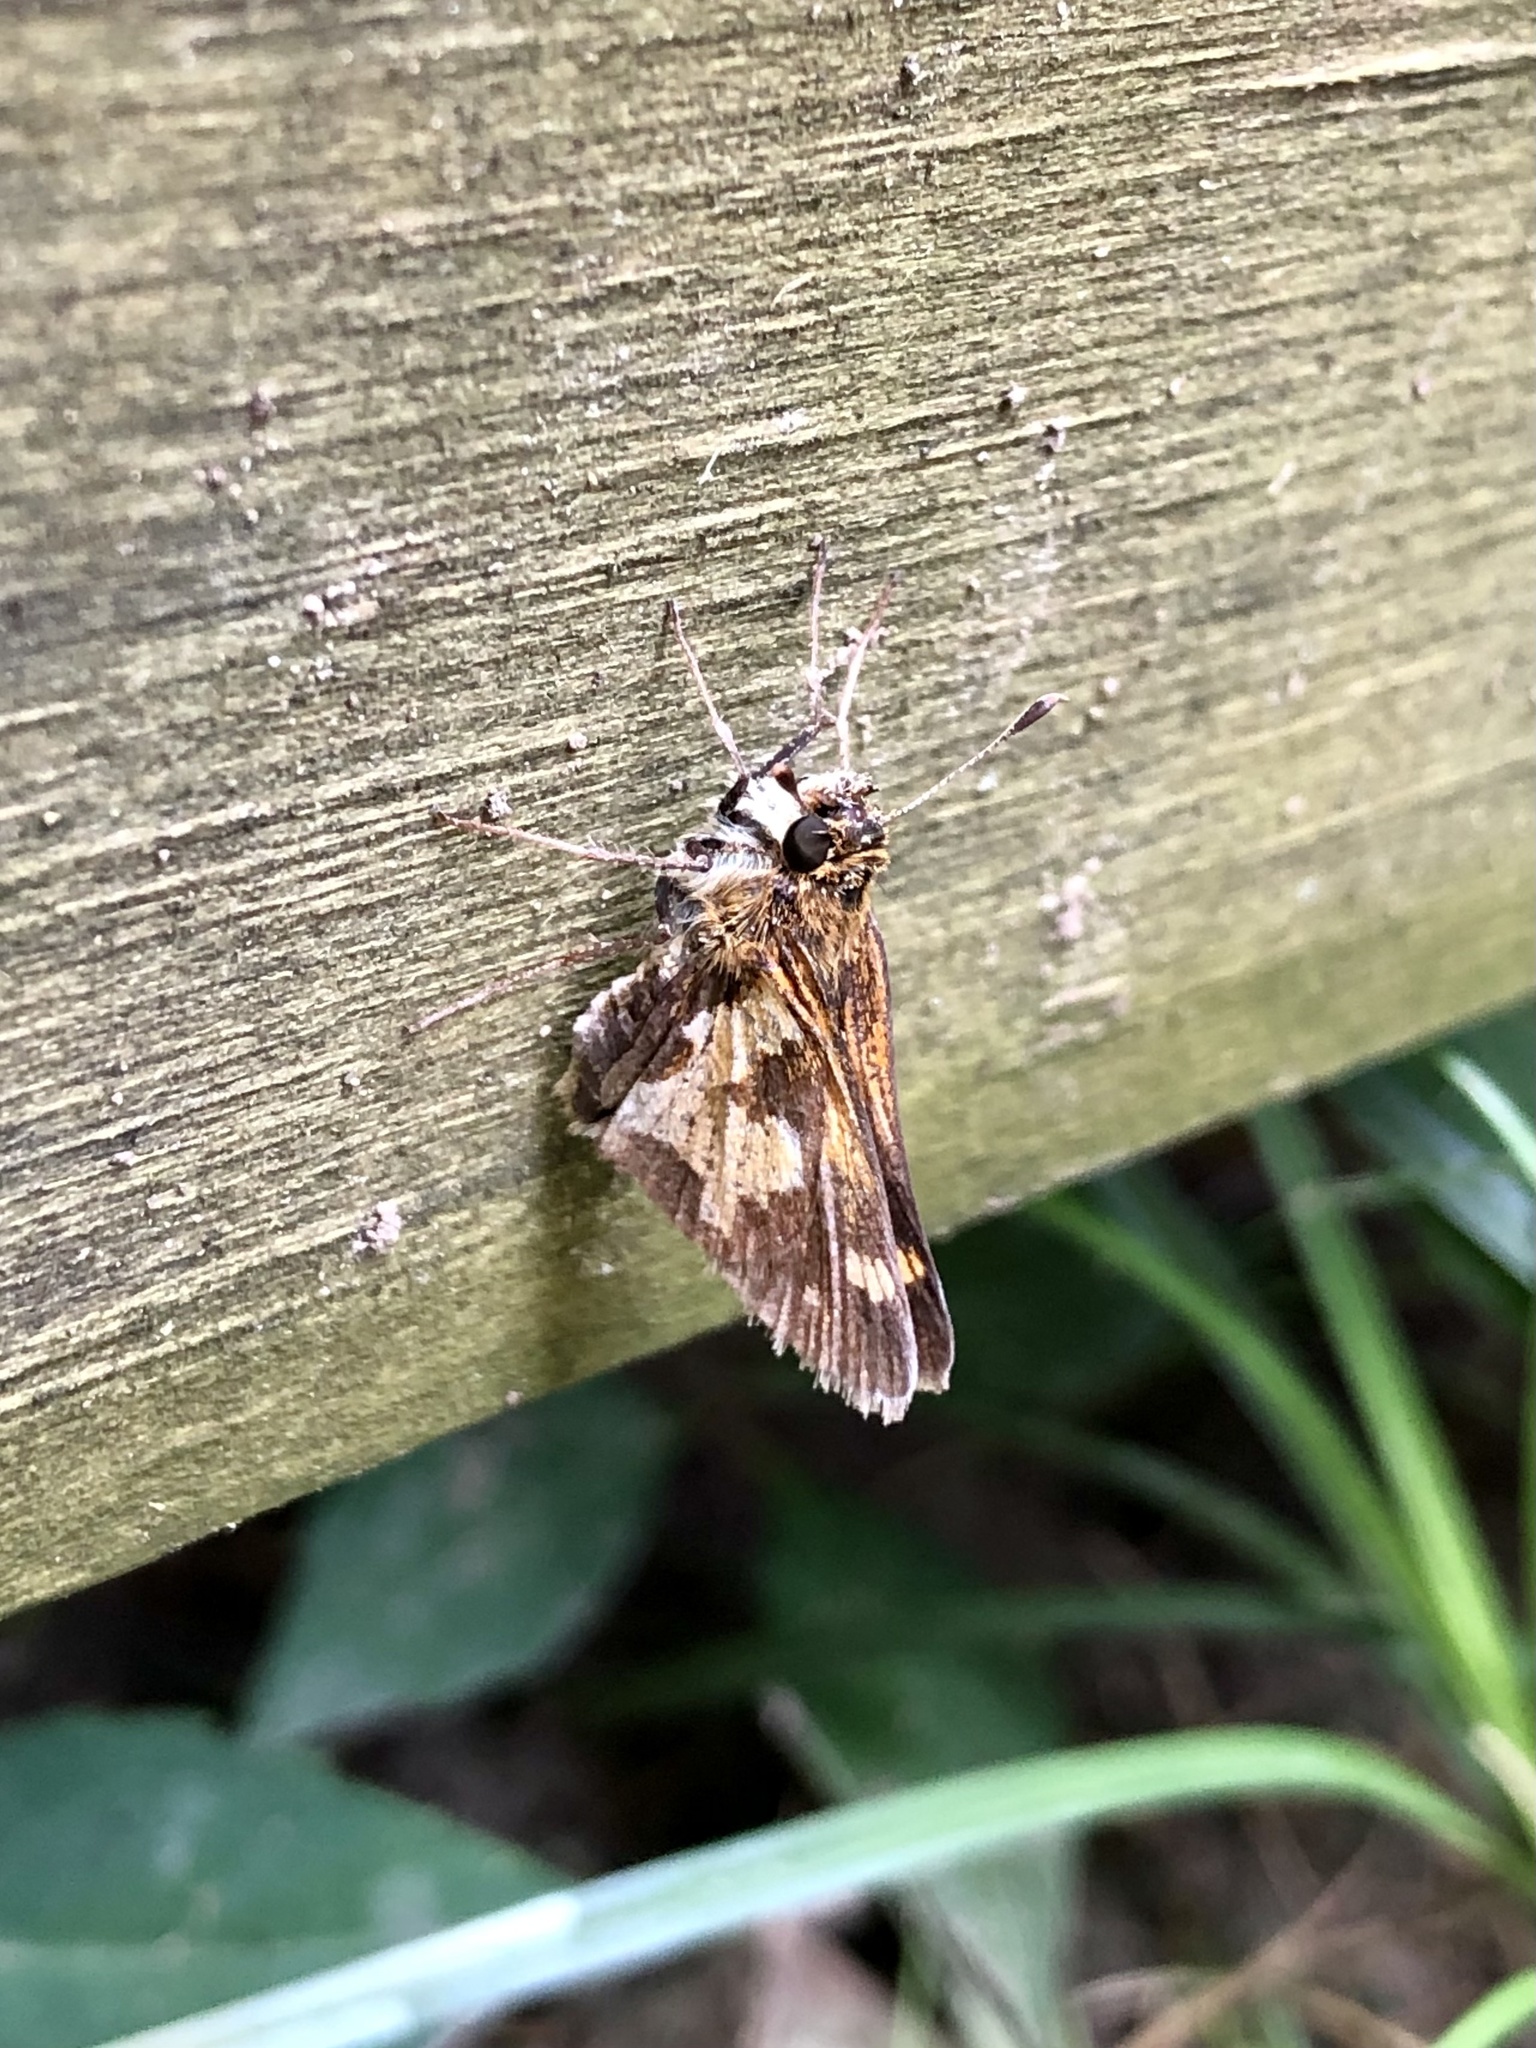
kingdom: Animalia
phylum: Arthropoda
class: Insecta
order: Lepidoptera
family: Hesperiidae
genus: Polites
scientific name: Polites coras
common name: Peck's skipper
